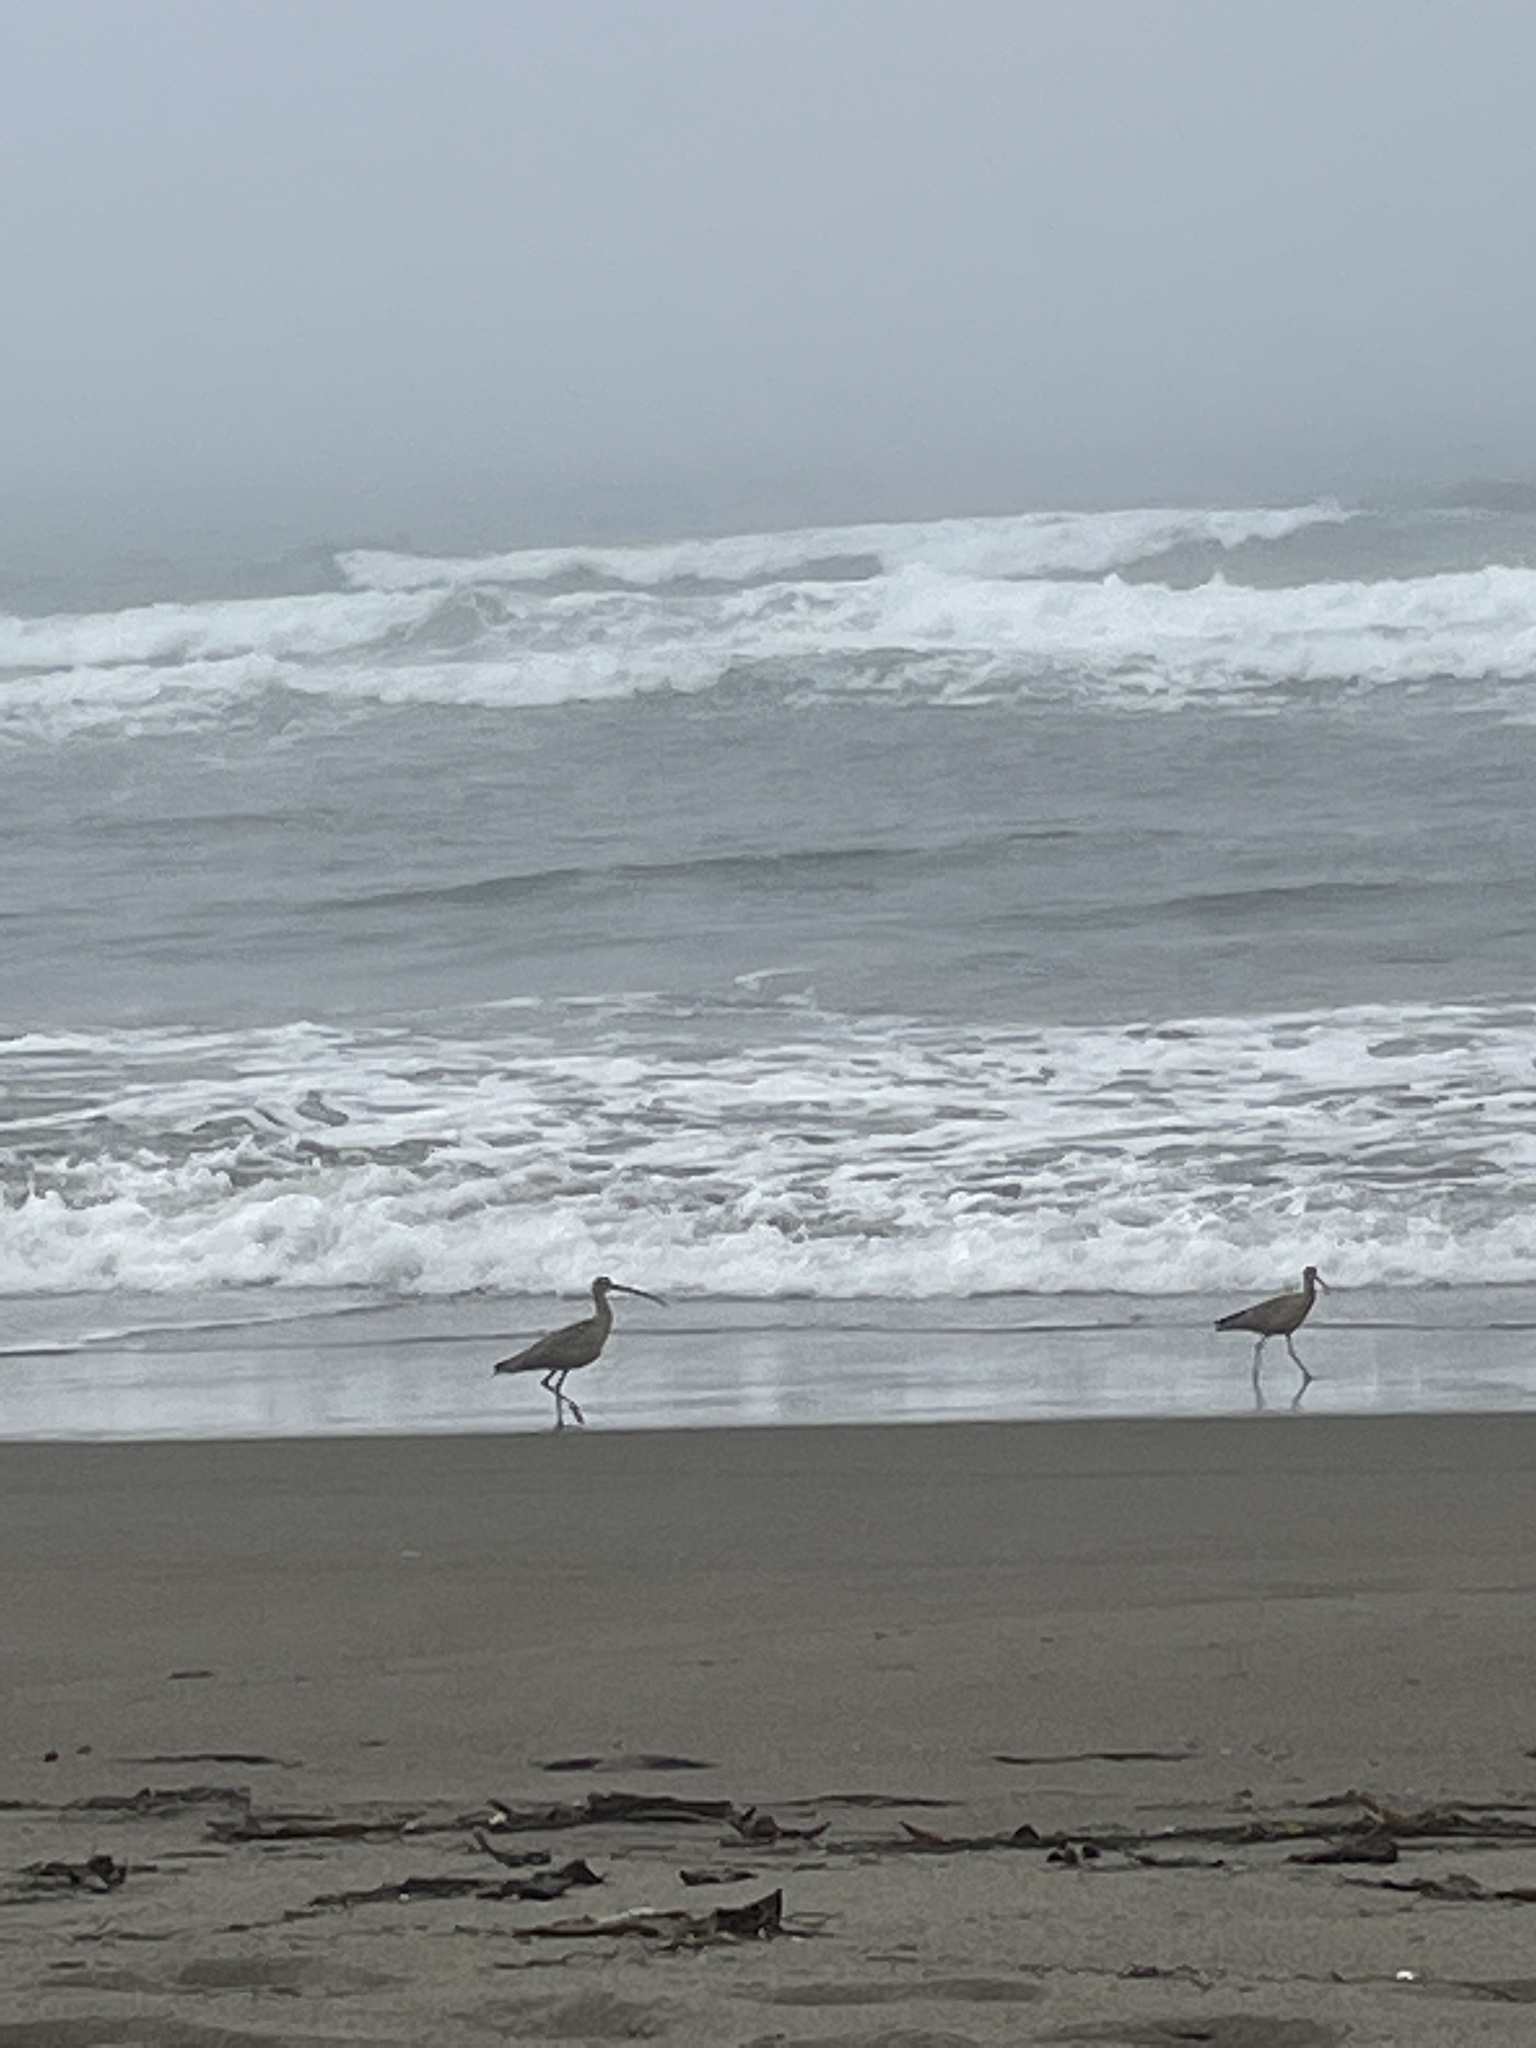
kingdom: Animalia
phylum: Chordata
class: Aves
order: Charadriiformes
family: Scolopacidae
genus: Numenius
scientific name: Numenius americanus
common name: Long-billed curlew
